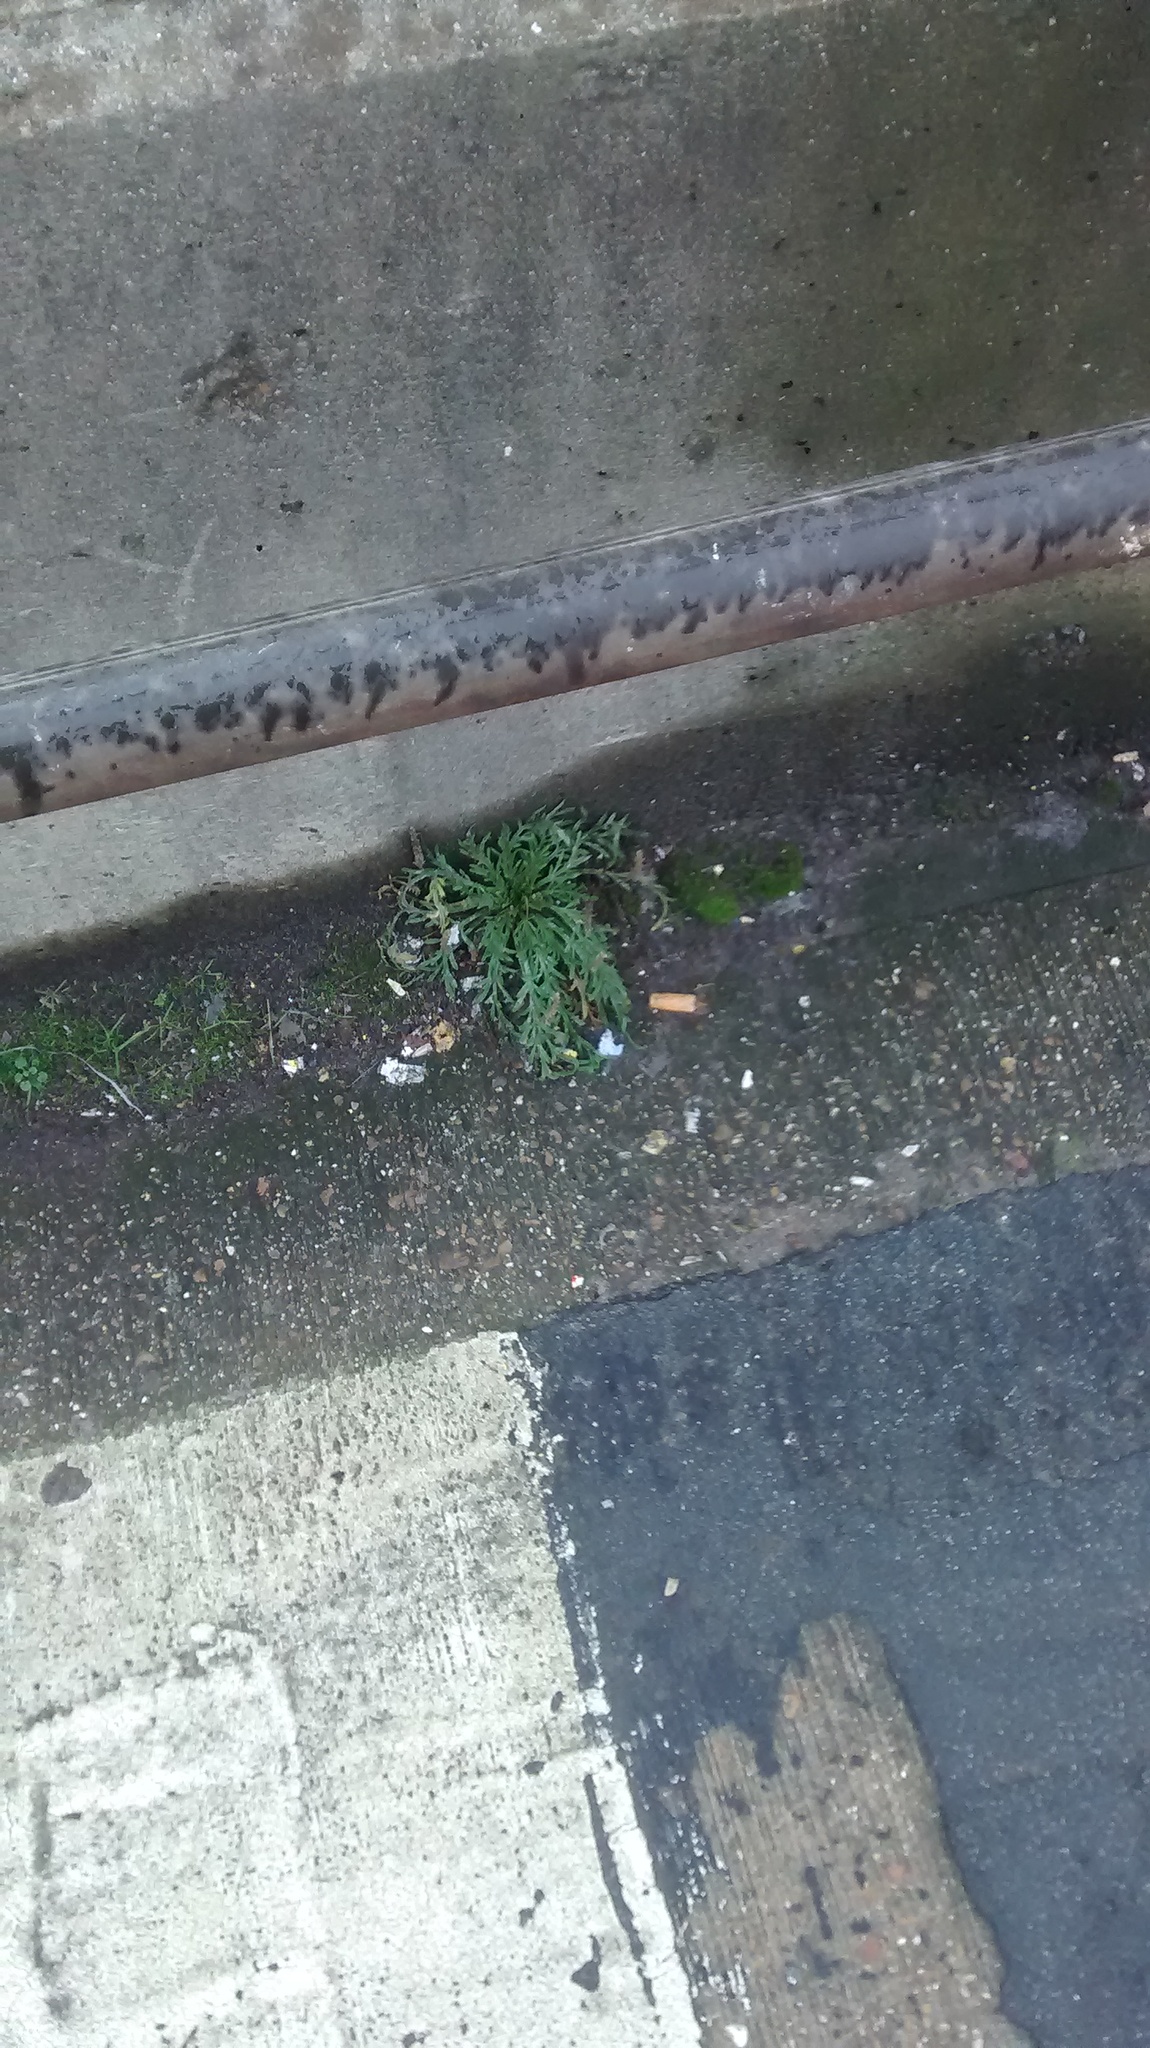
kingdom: Plantae
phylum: Tracheophyta
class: Magnoliopsida
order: Lamiales
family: Plantaginaceae
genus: Plantago
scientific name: Plantago coronopus
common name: Buck's-horn plantain
